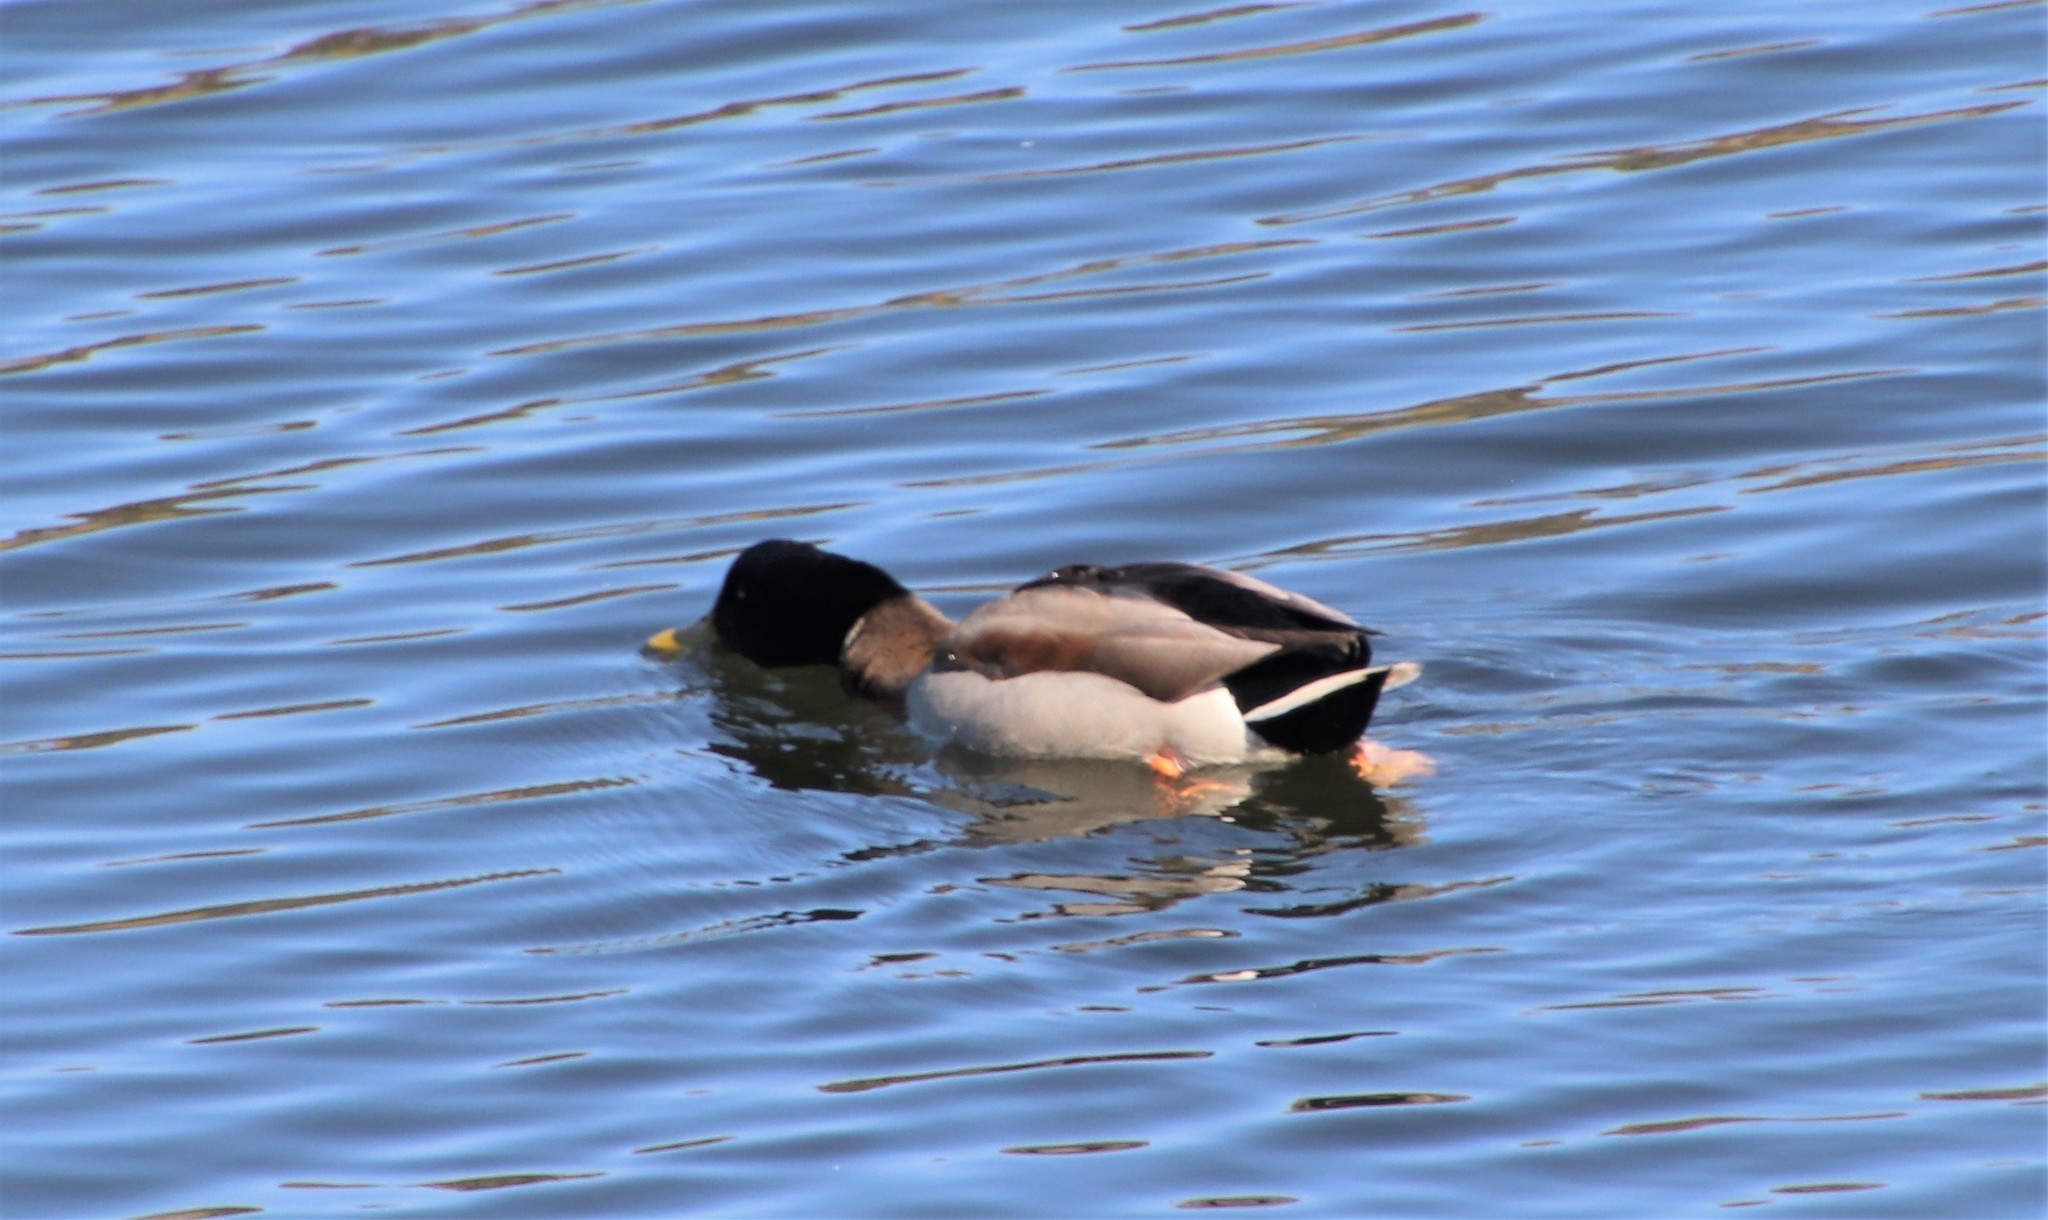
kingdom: Animalia
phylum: Chordata
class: Aves
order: Anseriformes
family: Anatidae
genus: Anas
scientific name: Anas platyrhynchos
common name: Mallard
